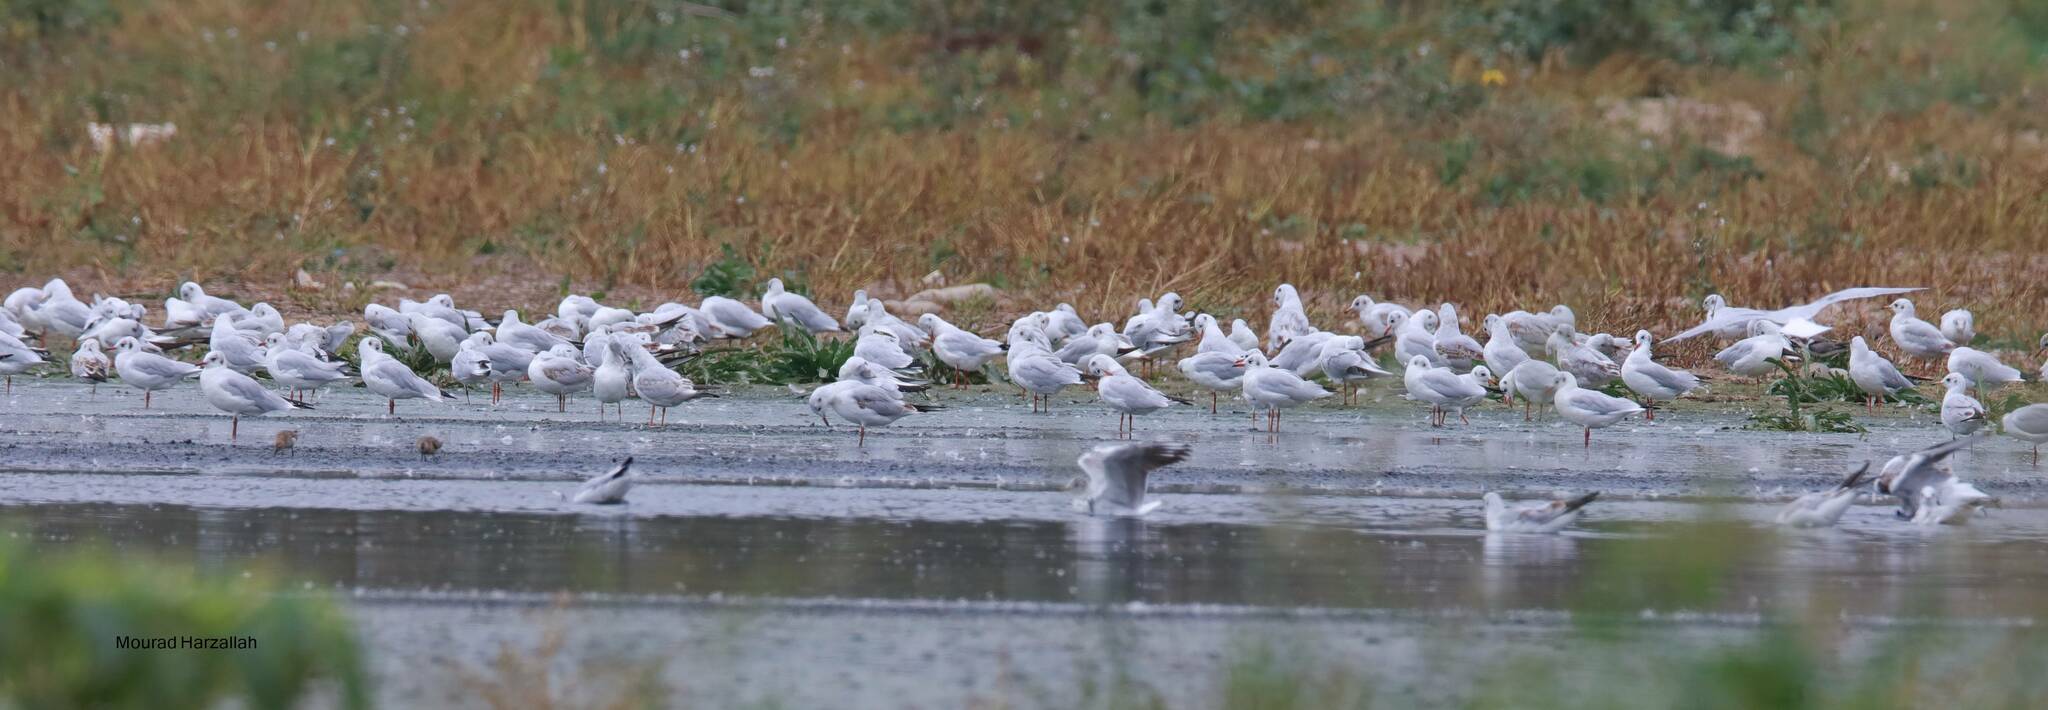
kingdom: Animalia
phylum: Chordata
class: Aves
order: Charadriiformes
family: Laridae
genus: Chroicocephalus
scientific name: Chroicocephalus ridibundus
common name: Black-headed gull
